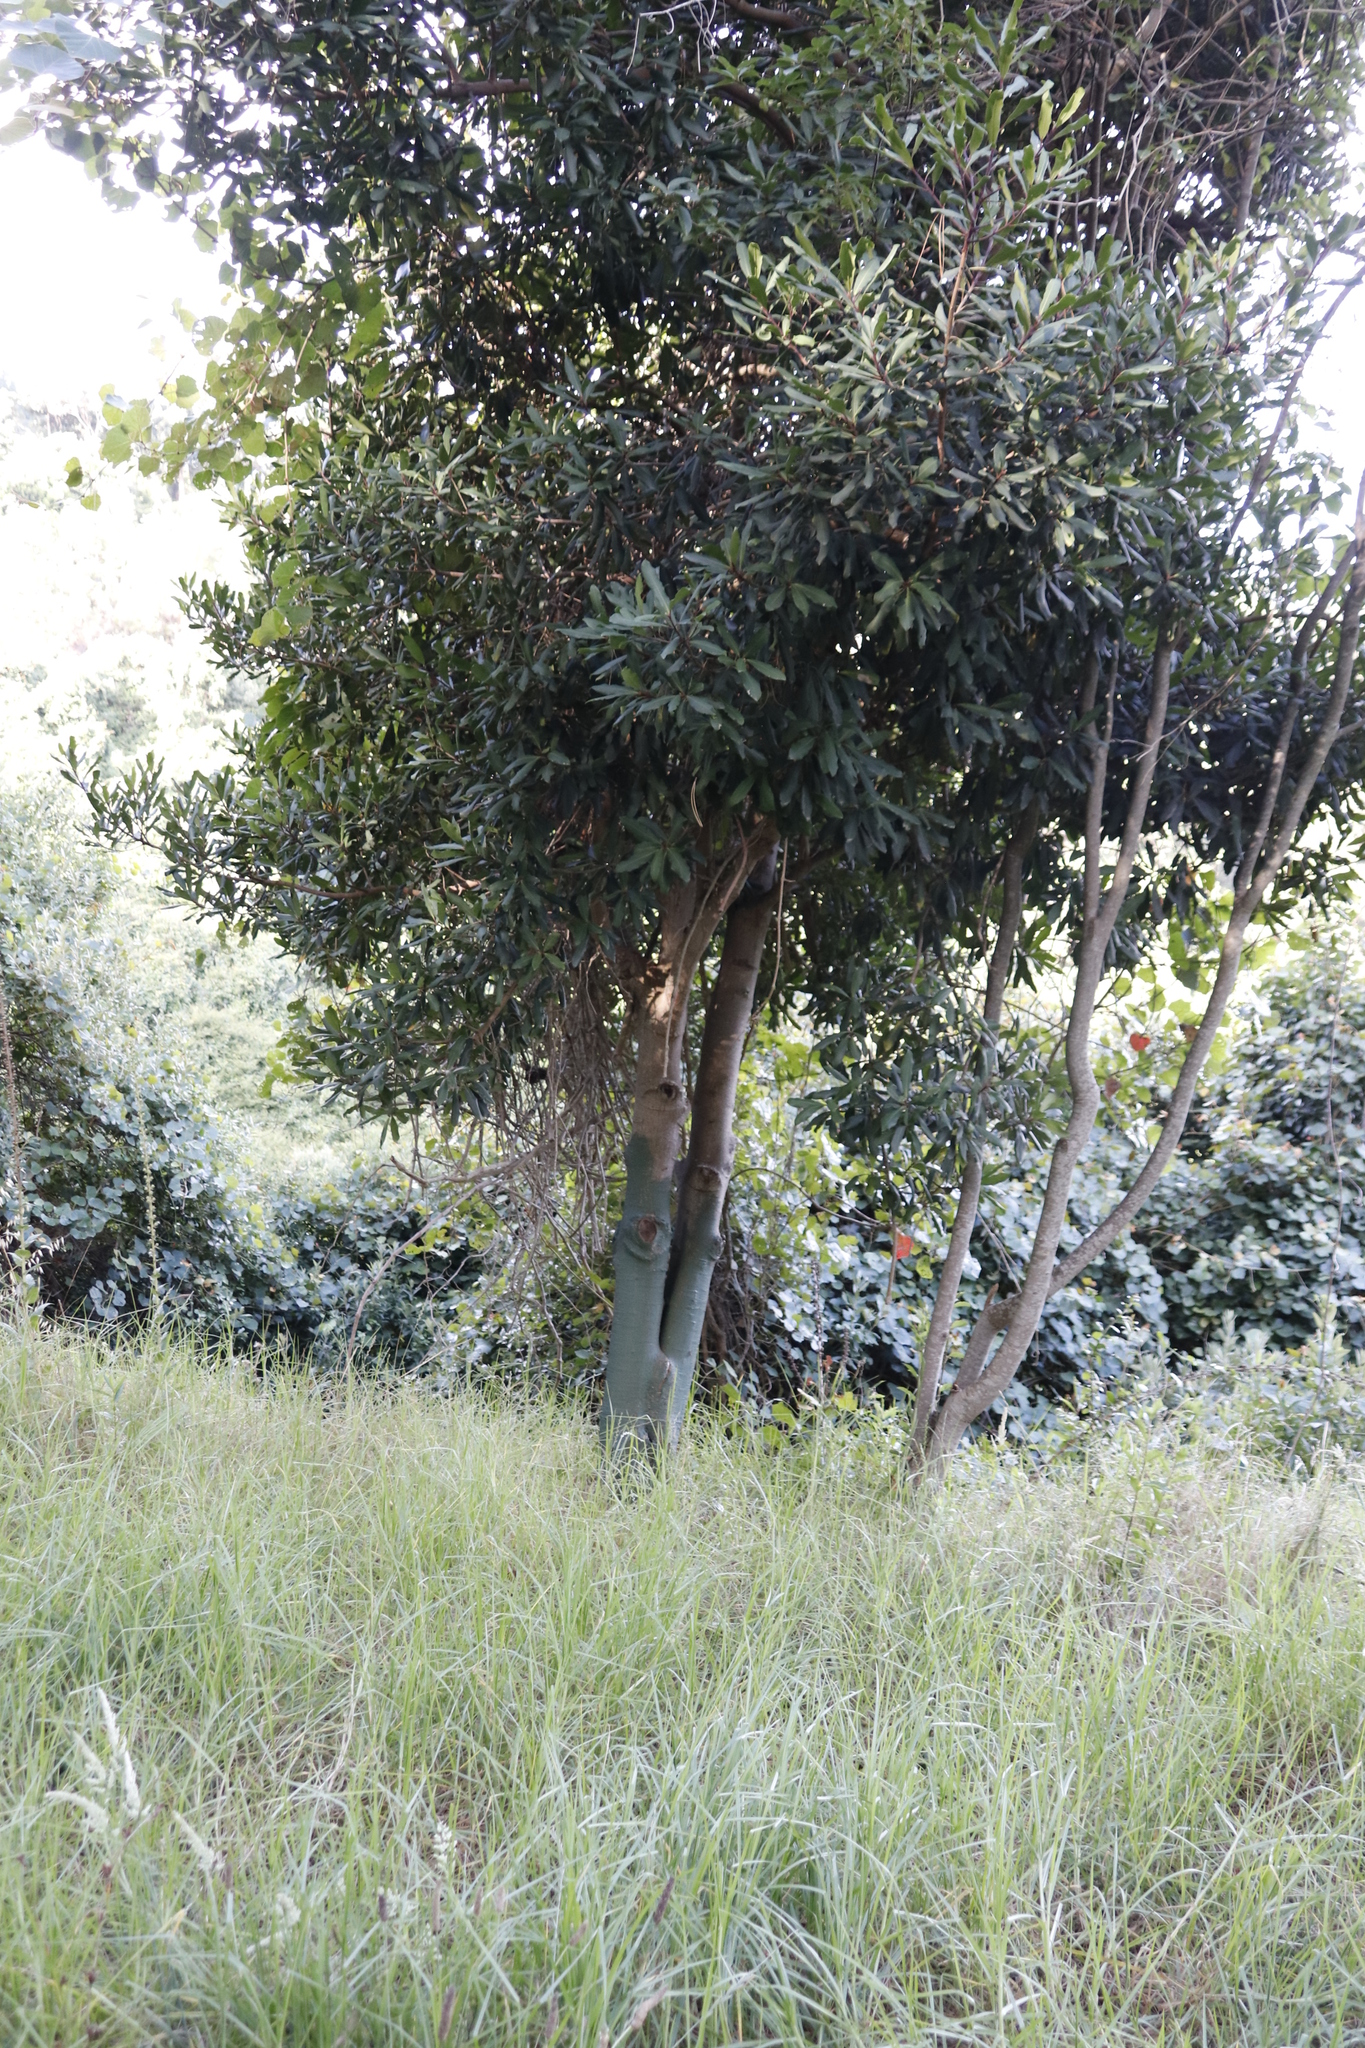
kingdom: Plantae
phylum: Tracheophyta
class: Magnoliopsida
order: Ericales
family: Primulaceae
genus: Myrsine
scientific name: Myrsine melanophloeos
